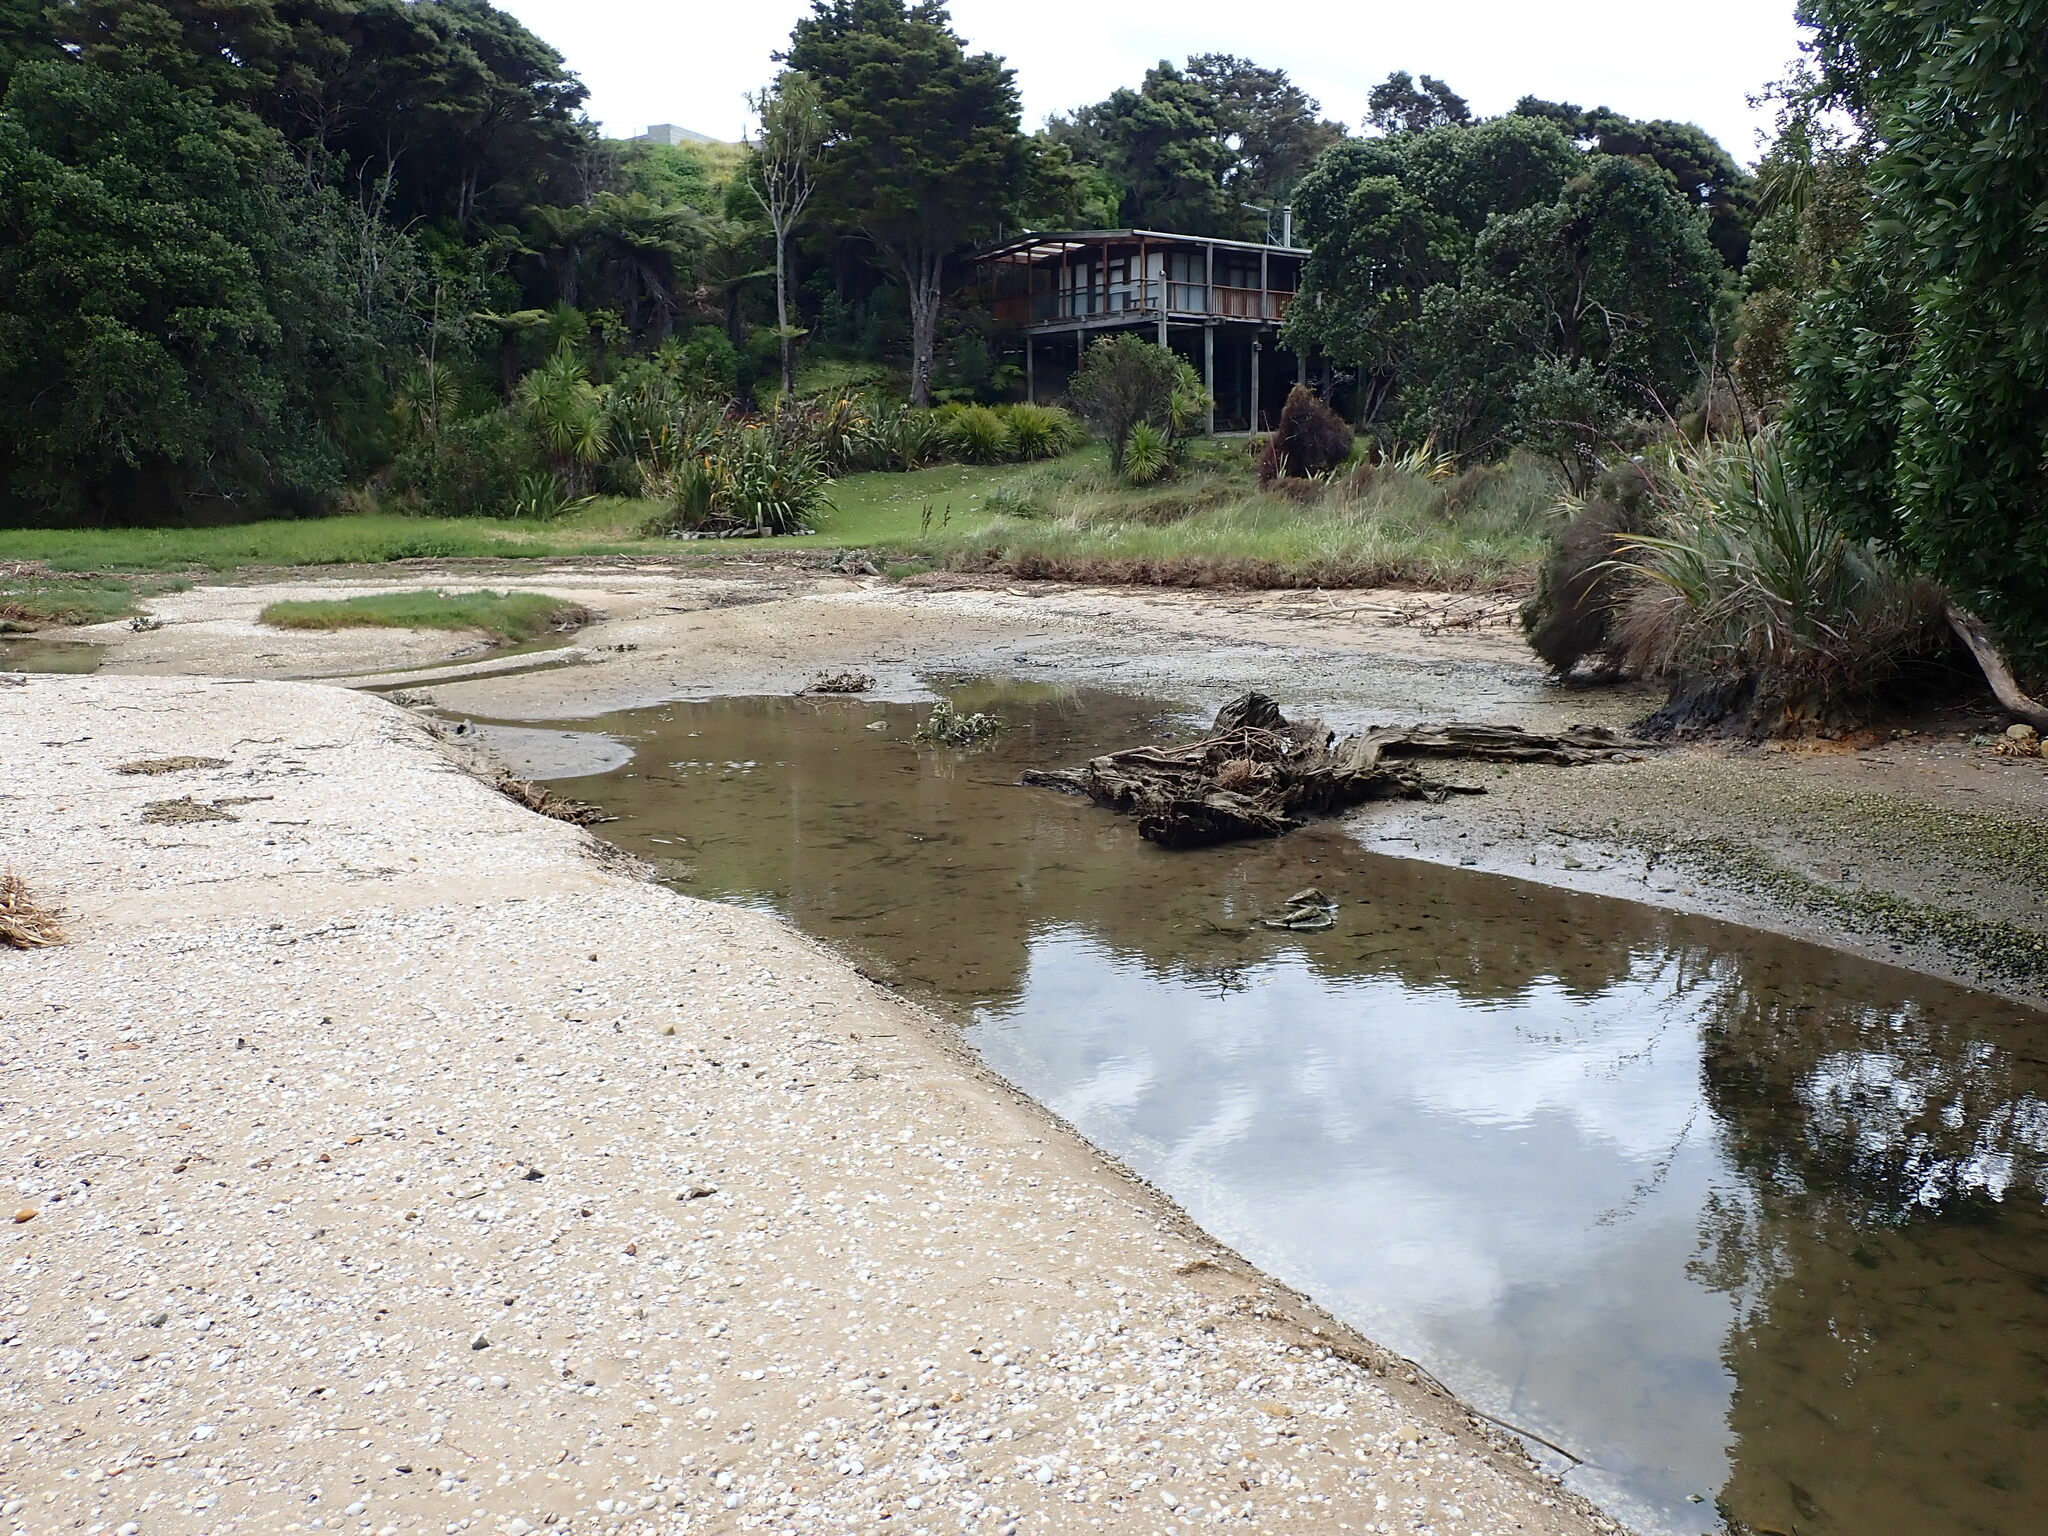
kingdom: Animalia
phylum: Mollusca
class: Gastropoda
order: Littorinimorpha
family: Tateidae
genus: Potamopyrgus
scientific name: Potamopyrgus estuarinus
